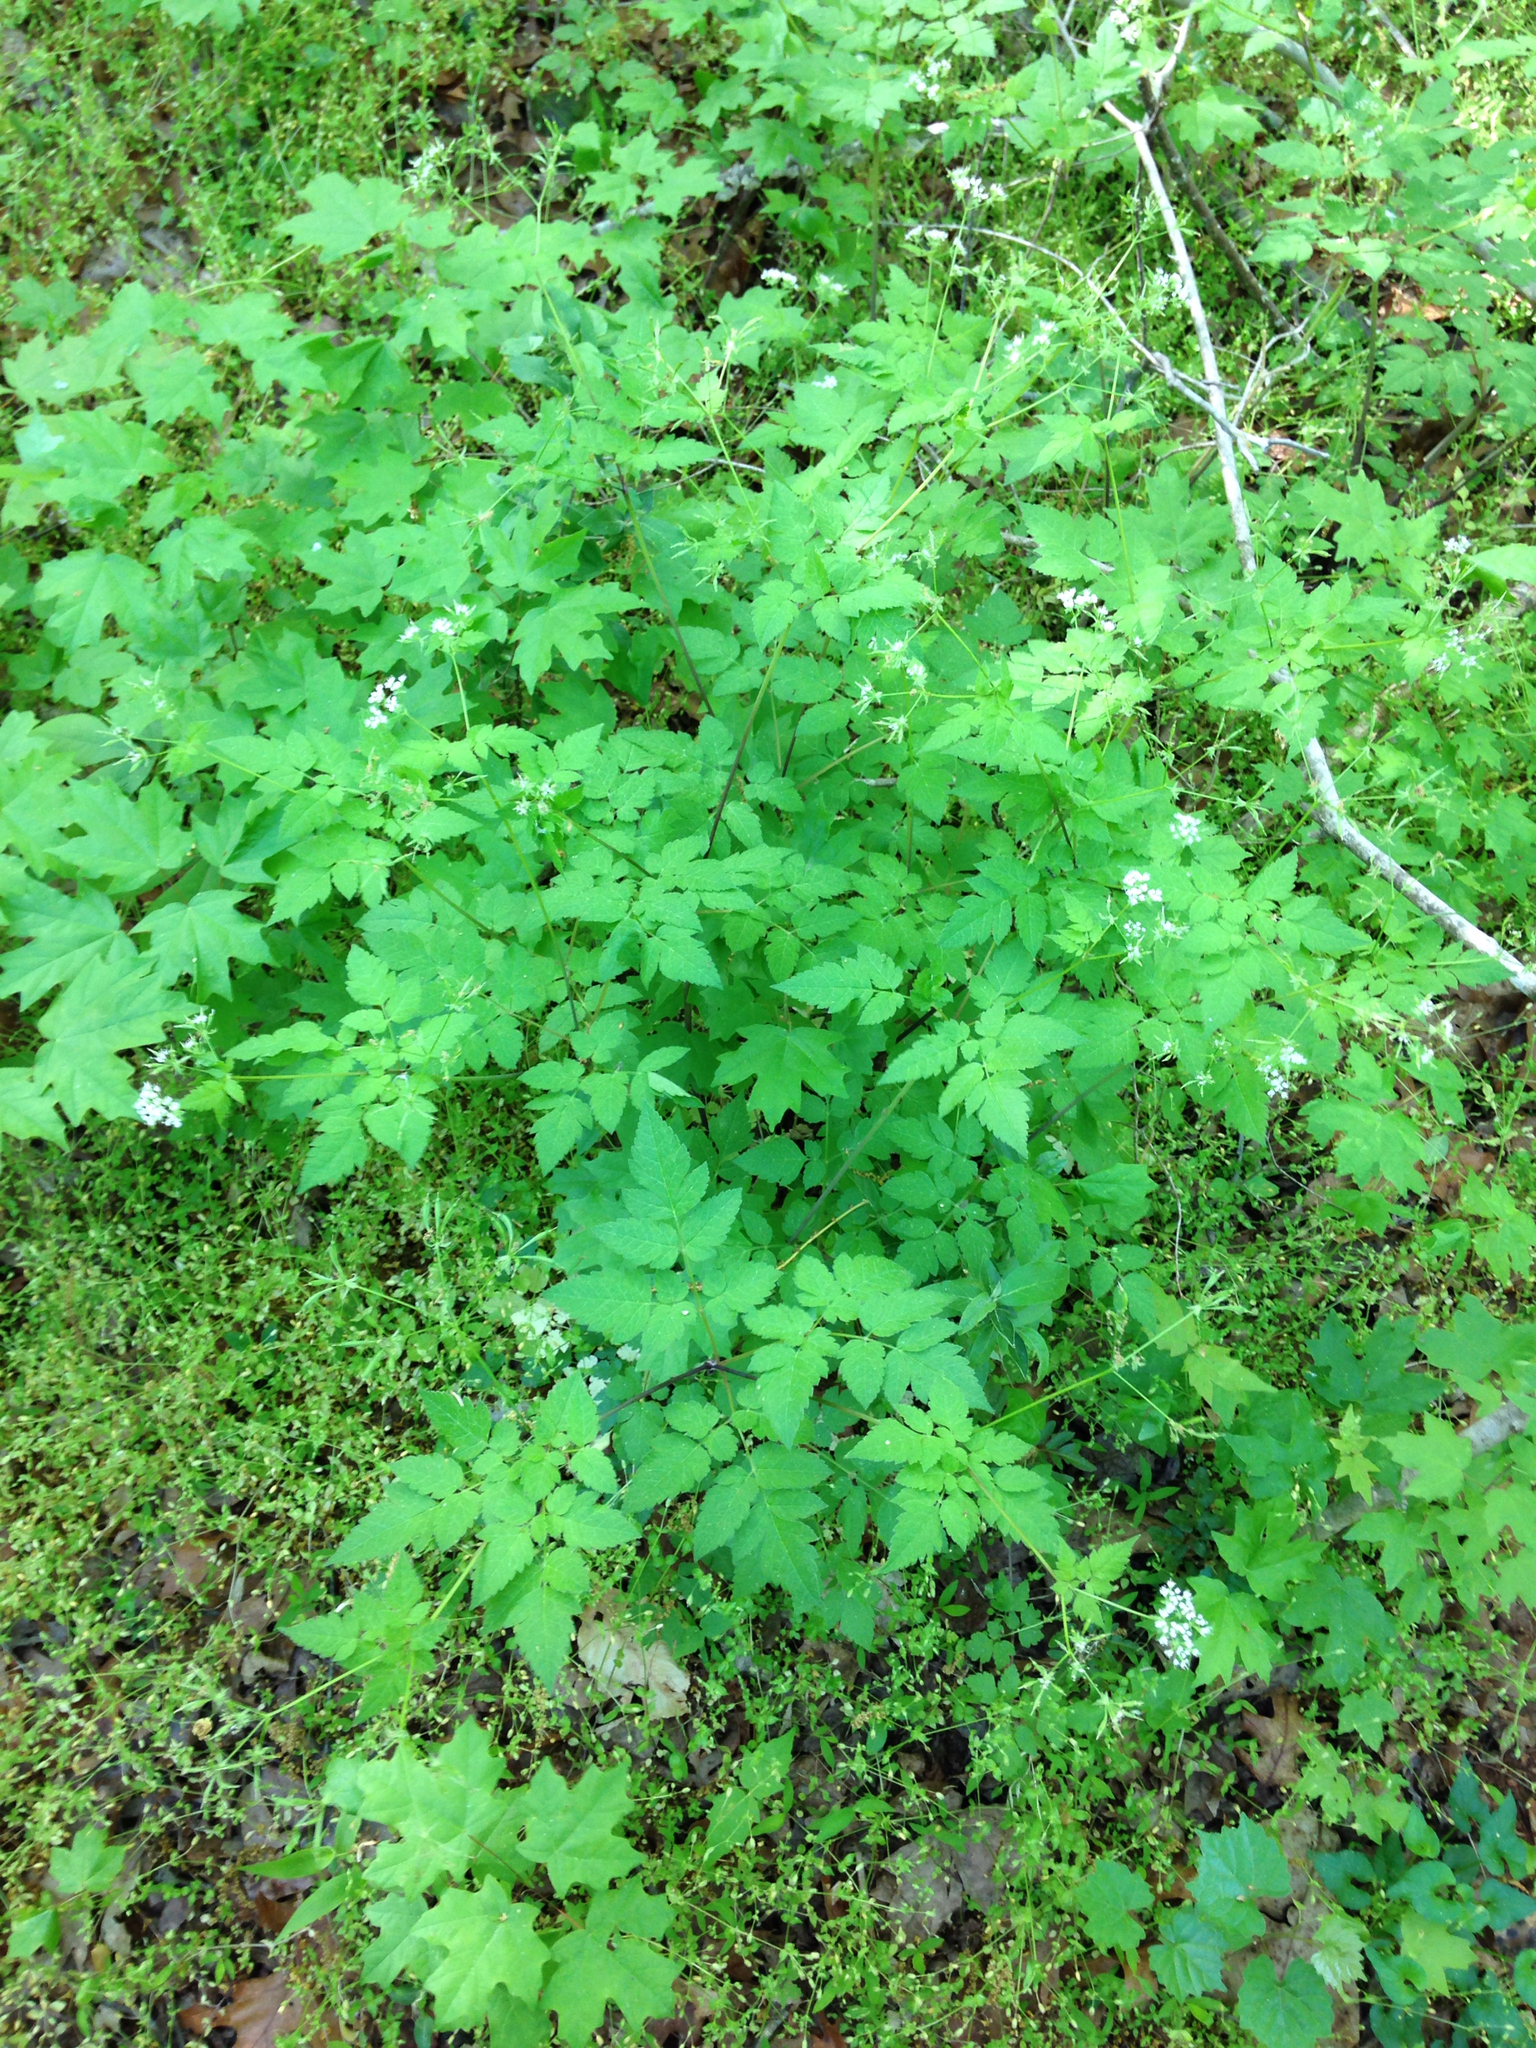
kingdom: Plantae
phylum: Tracheophyta
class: Magnoliopsida
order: Apiales
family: Apiaceae
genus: Osmorhiza
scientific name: Osmorhiza longistylis
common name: Smooth sweet cicely
